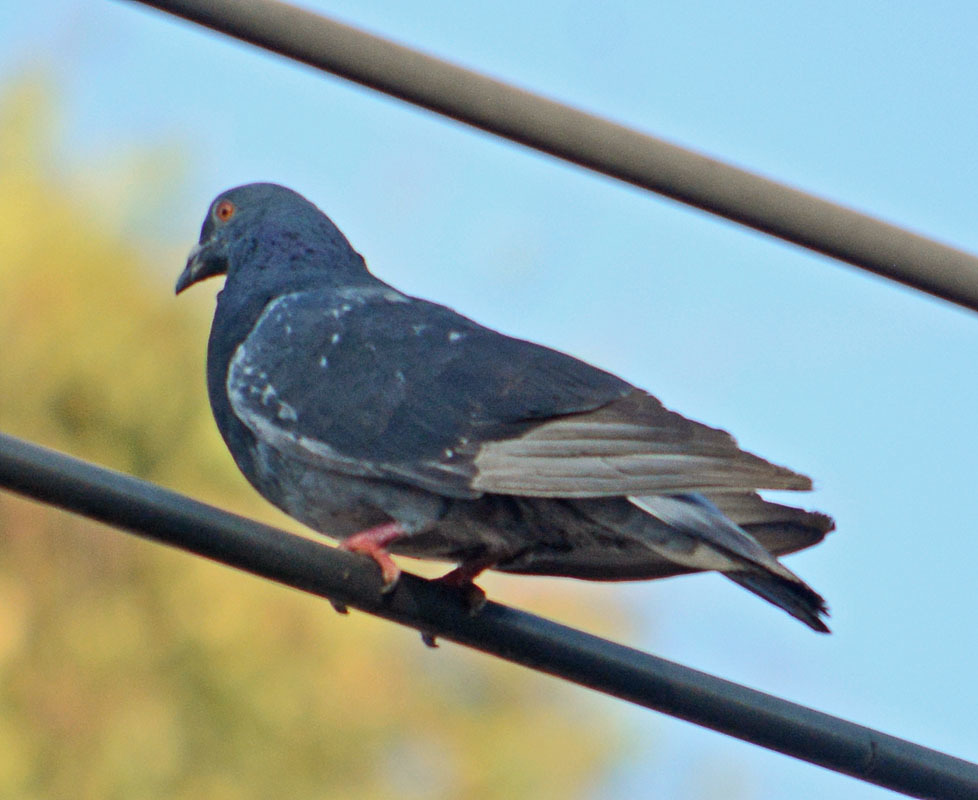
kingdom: Animalia
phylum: Chordata
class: Aves
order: Columbiformes
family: Columbidae
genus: Columba
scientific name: Columba livia
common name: Rock pigeon
